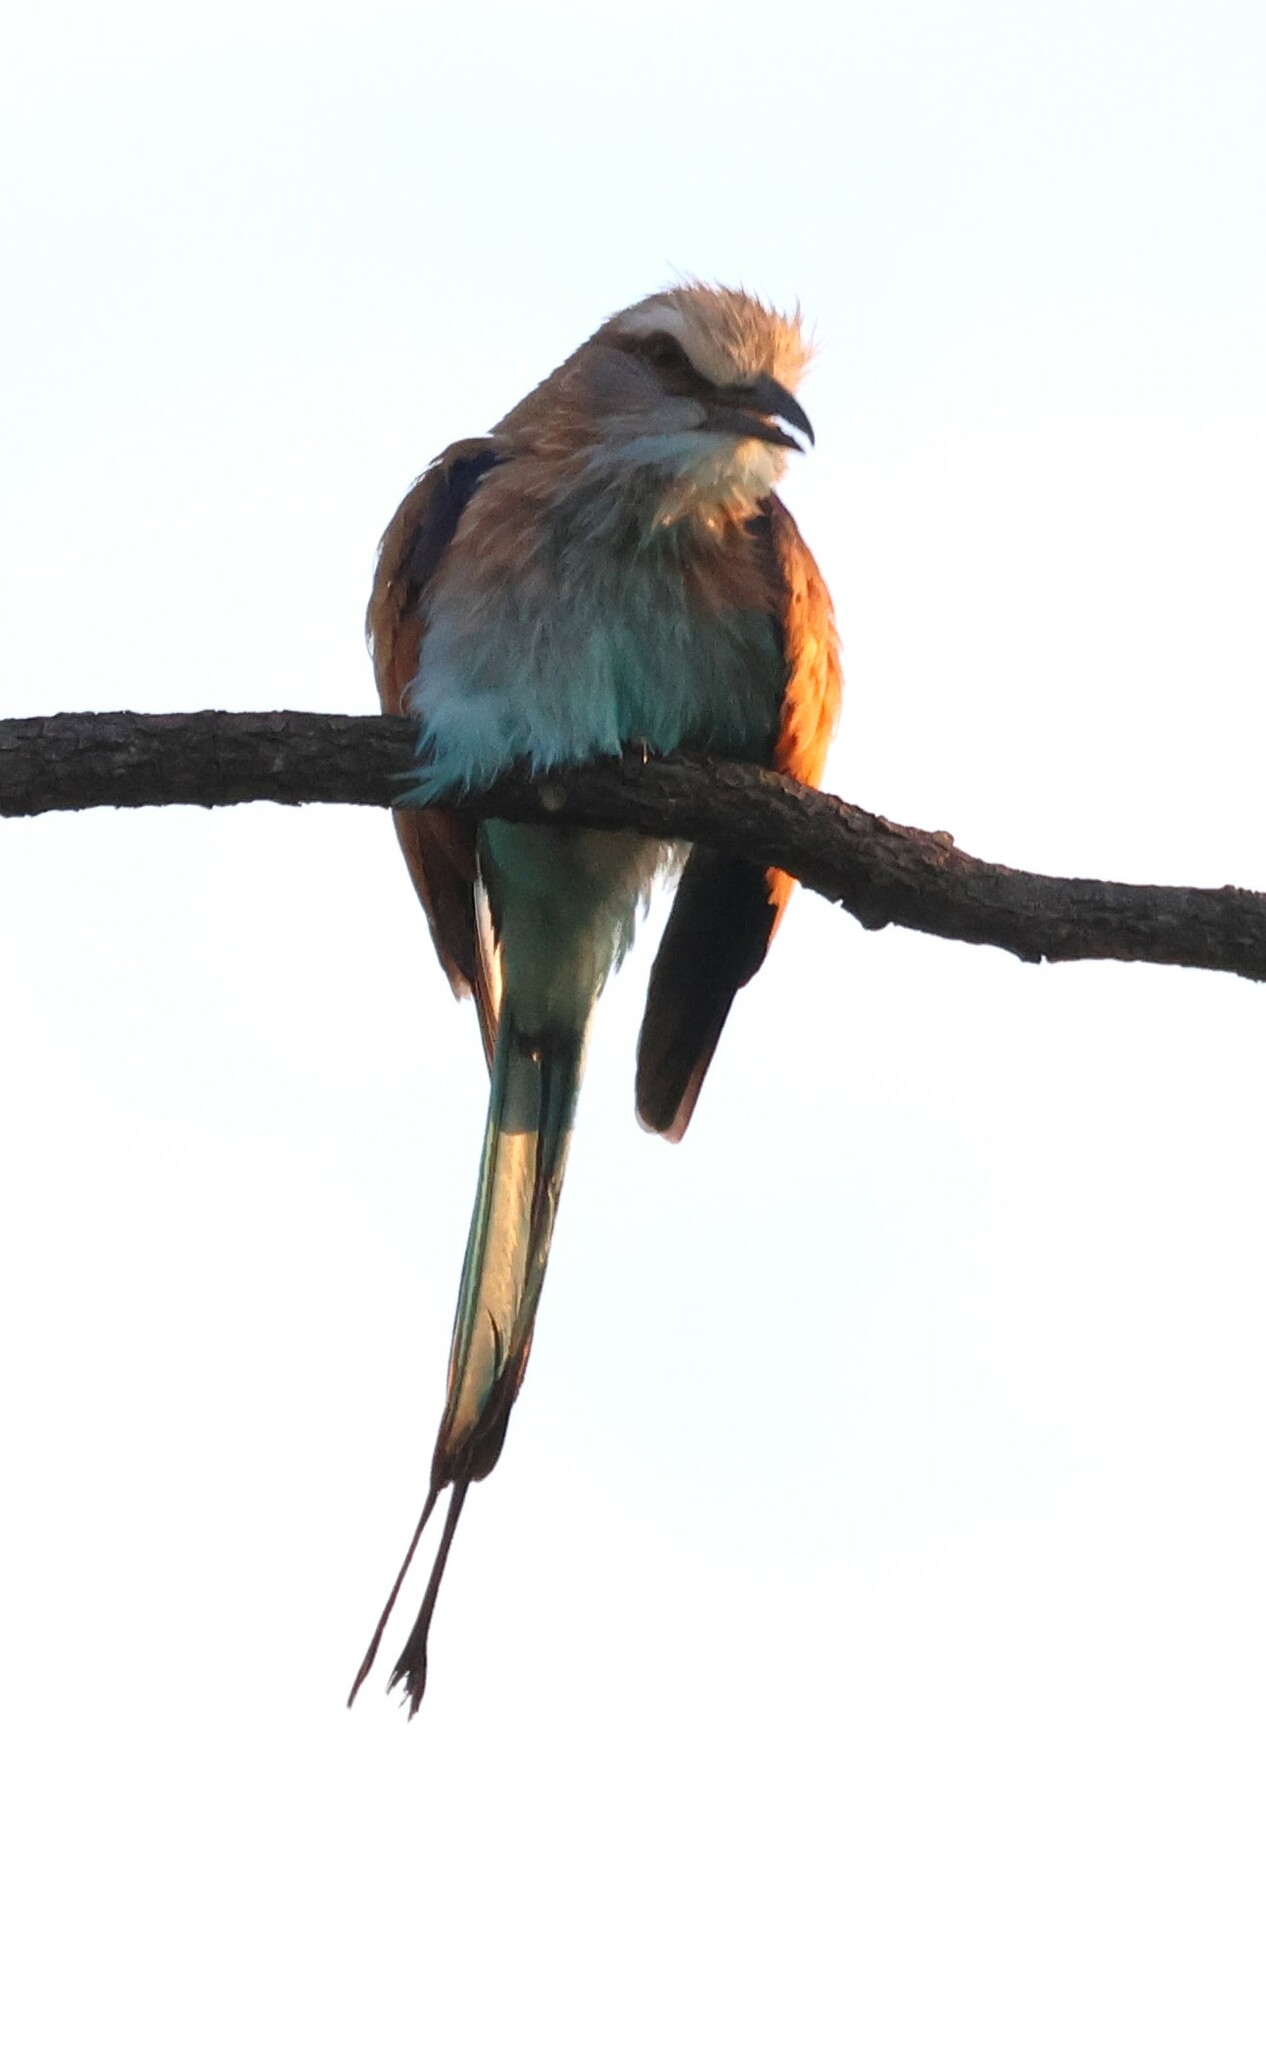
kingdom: Animalia
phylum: Chordata
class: Aves
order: Coraciiformes
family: Coraciidae
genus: Coracias
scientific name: Coracias spatulatus
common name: Racket-tailed roller
